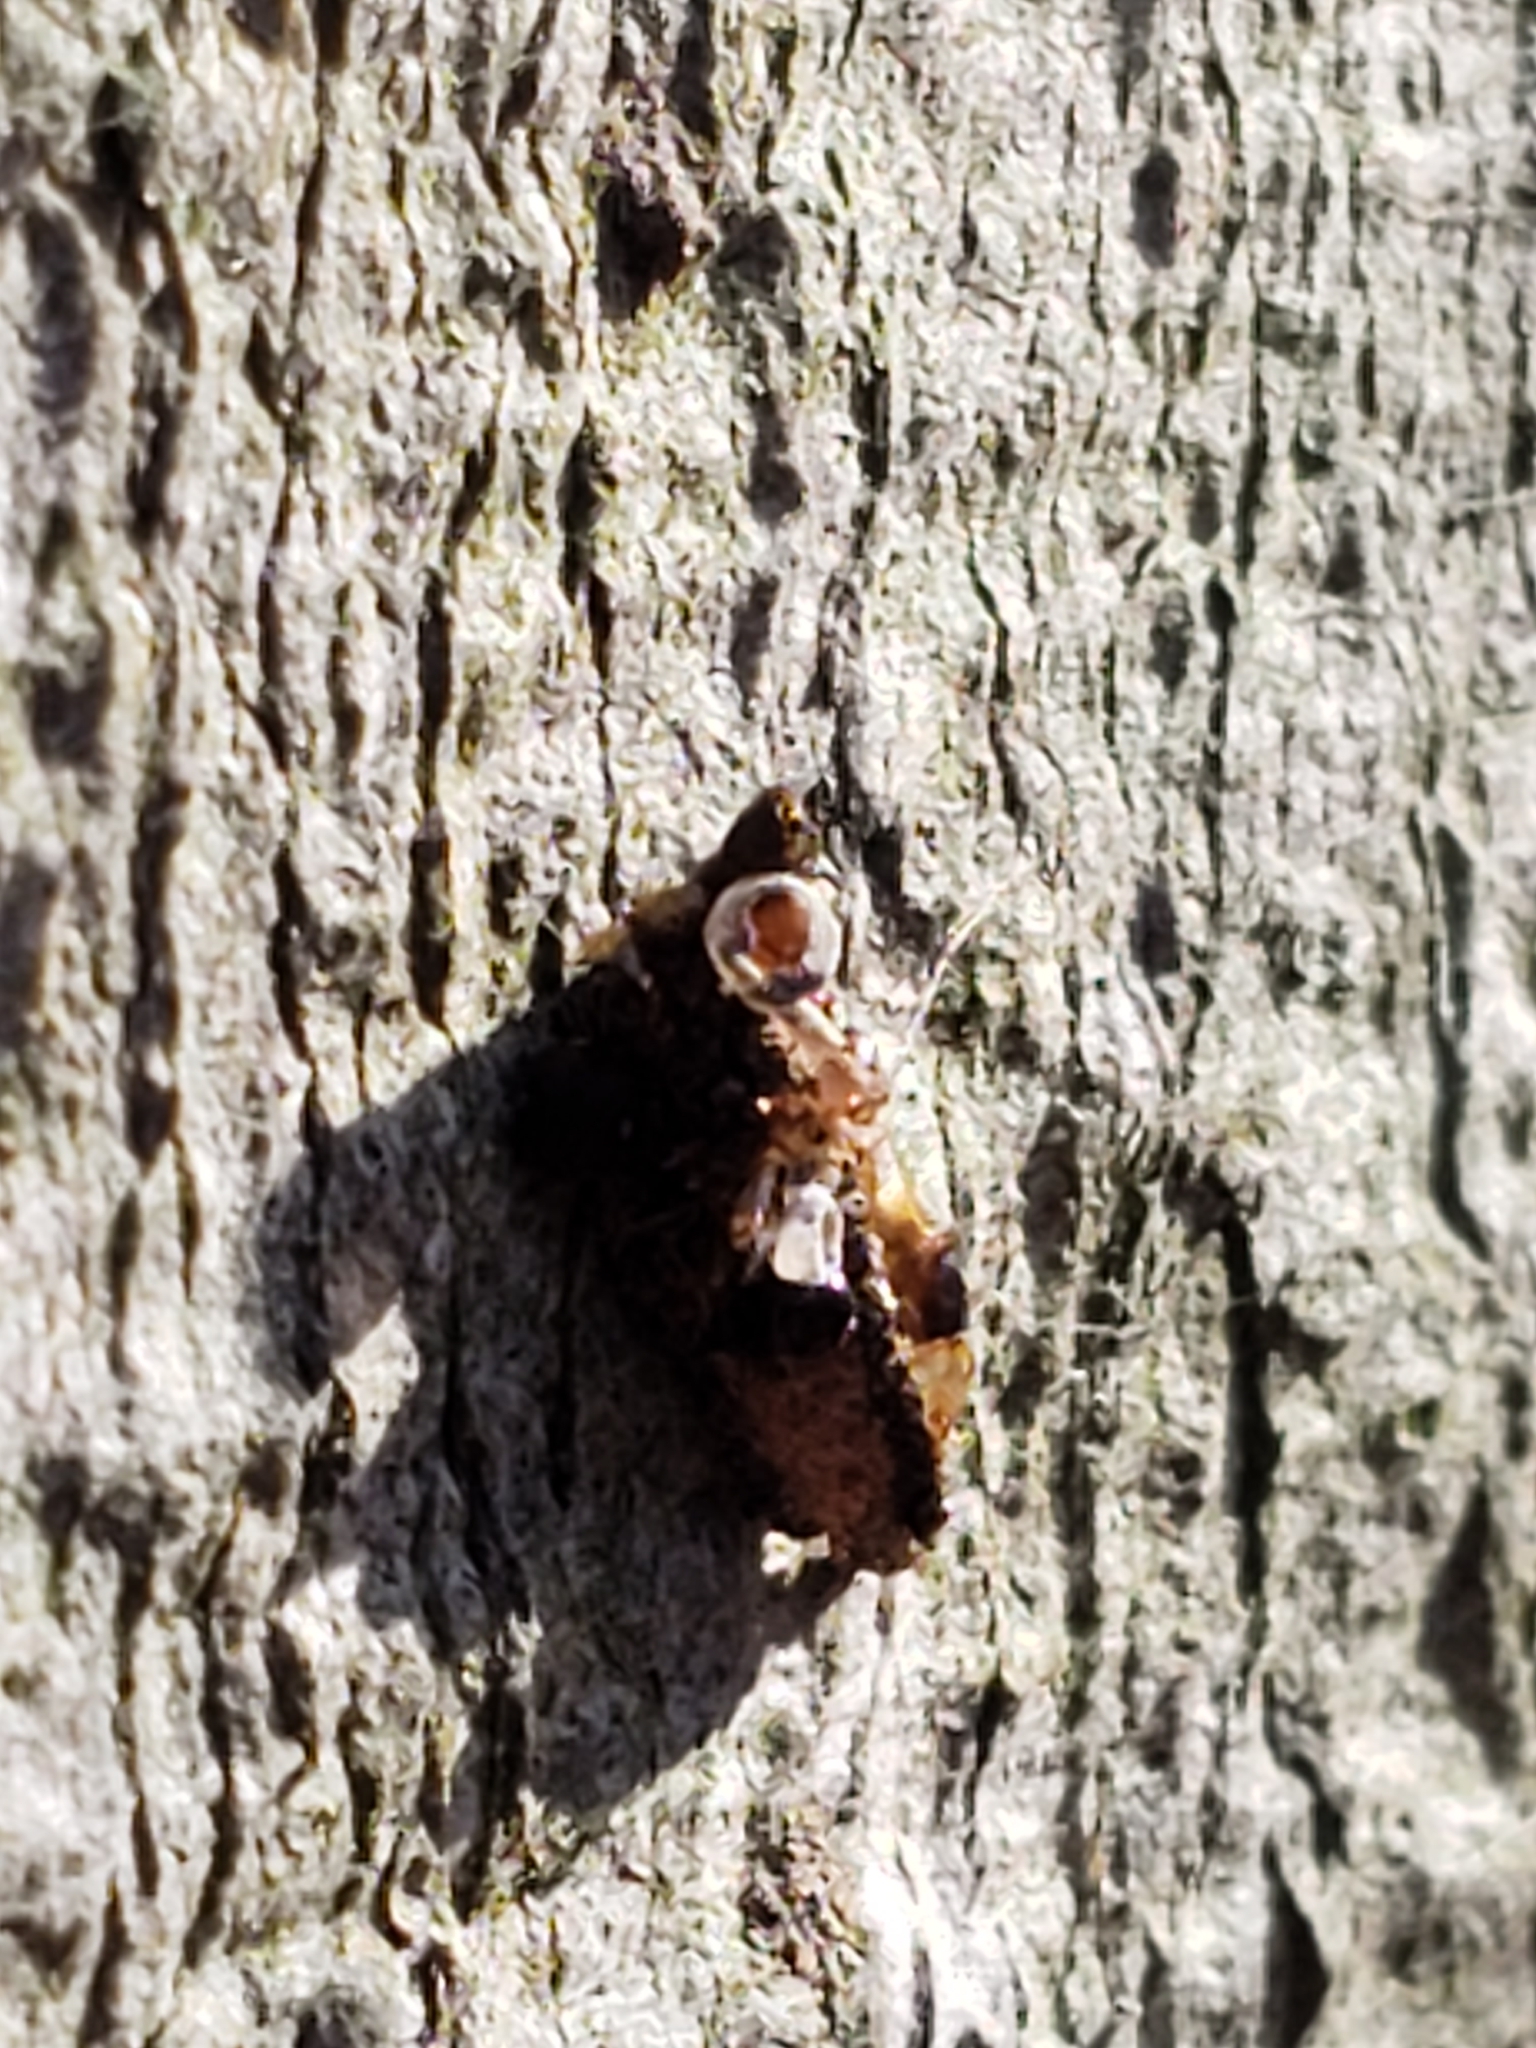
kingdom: Animalia
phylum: Arthropoda
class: Insecta
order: Lepidoptera
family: Psychidae
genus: Dahlica
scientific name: Dahlica triquetrella
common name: Narrow lichen case-bearer
